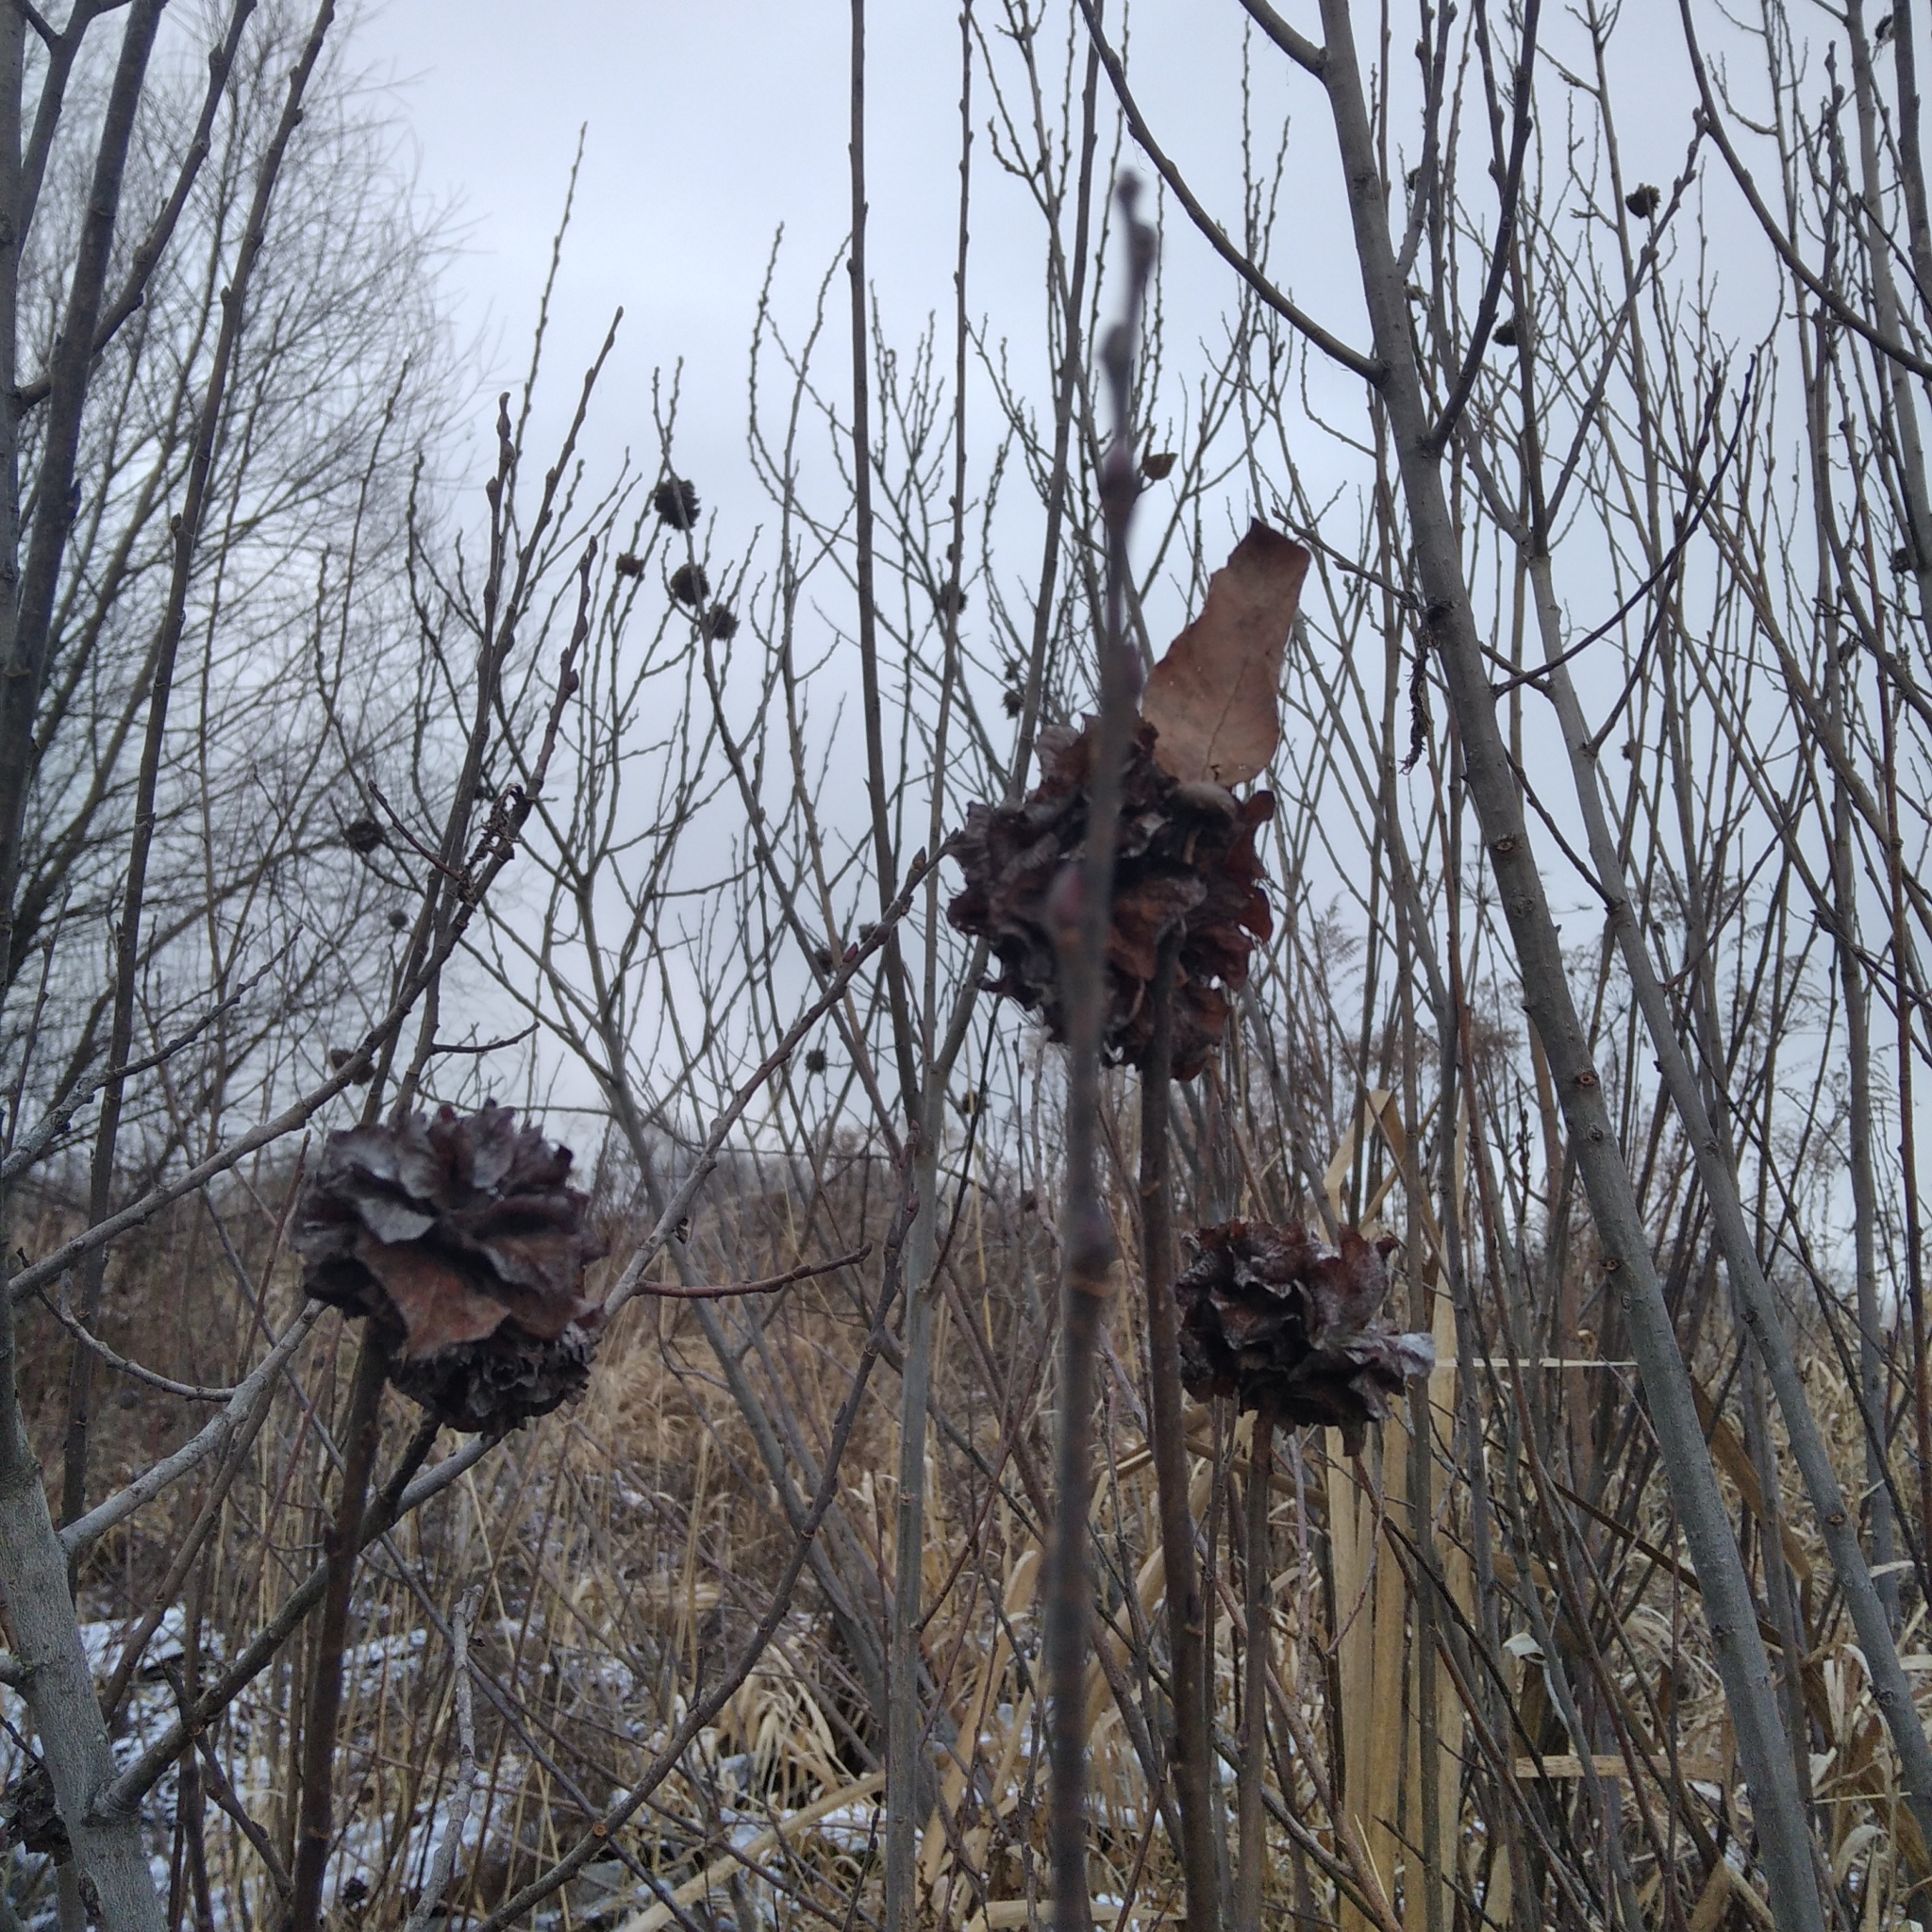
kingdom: Animalia
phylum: Arthropoda
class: Insecta
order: Diptera
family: Cecidomyiidae
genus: Rabdophaga
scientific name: Rabdophaga rosaria
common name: Willow rose gall midge
